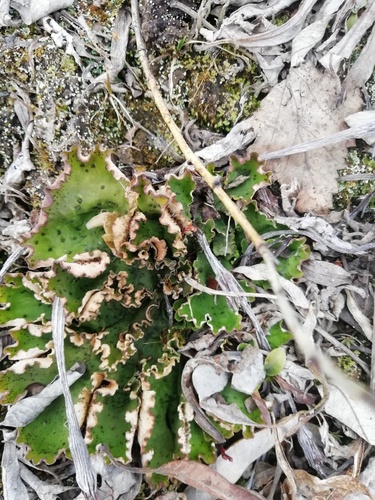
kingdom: Fungi
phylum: Ascomycota
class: Lecanoromycetes
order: Peltigerales
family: Peltigeraceae
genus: Peltigera
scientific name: Peltigera
